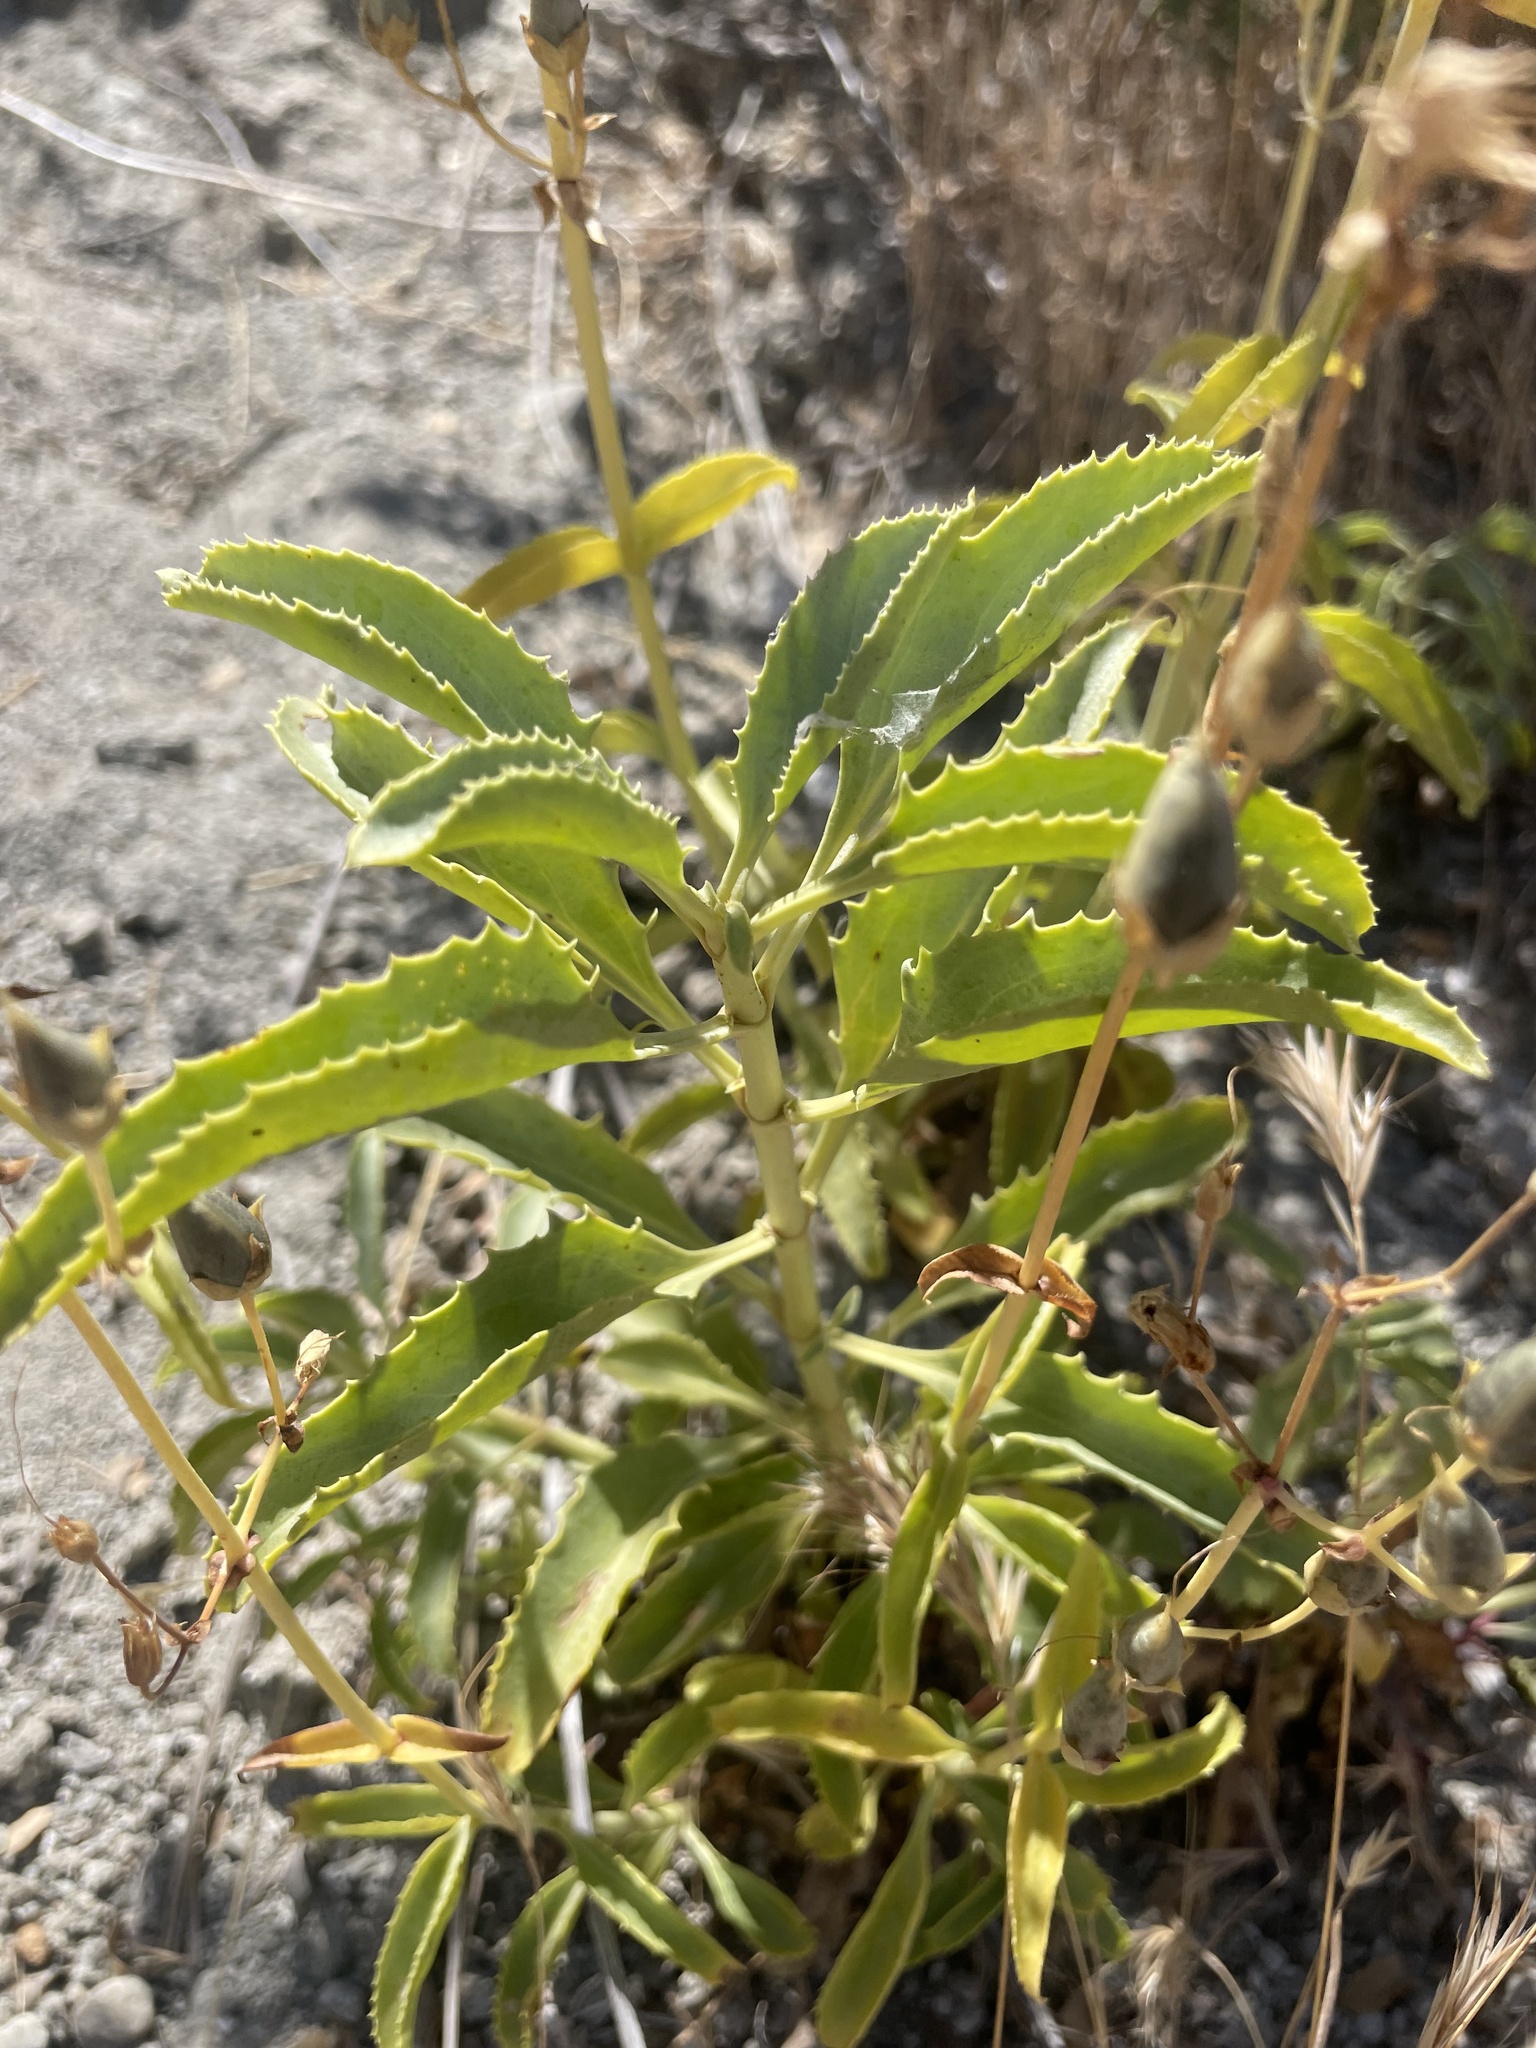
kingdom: Plantae
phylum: Tracheophyta
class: Magnoliopsida
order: Lamiales
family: Plantaginaceae
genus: Penstemon
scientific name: Penstemon grinnellii
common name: Grinnell's beardtongue
